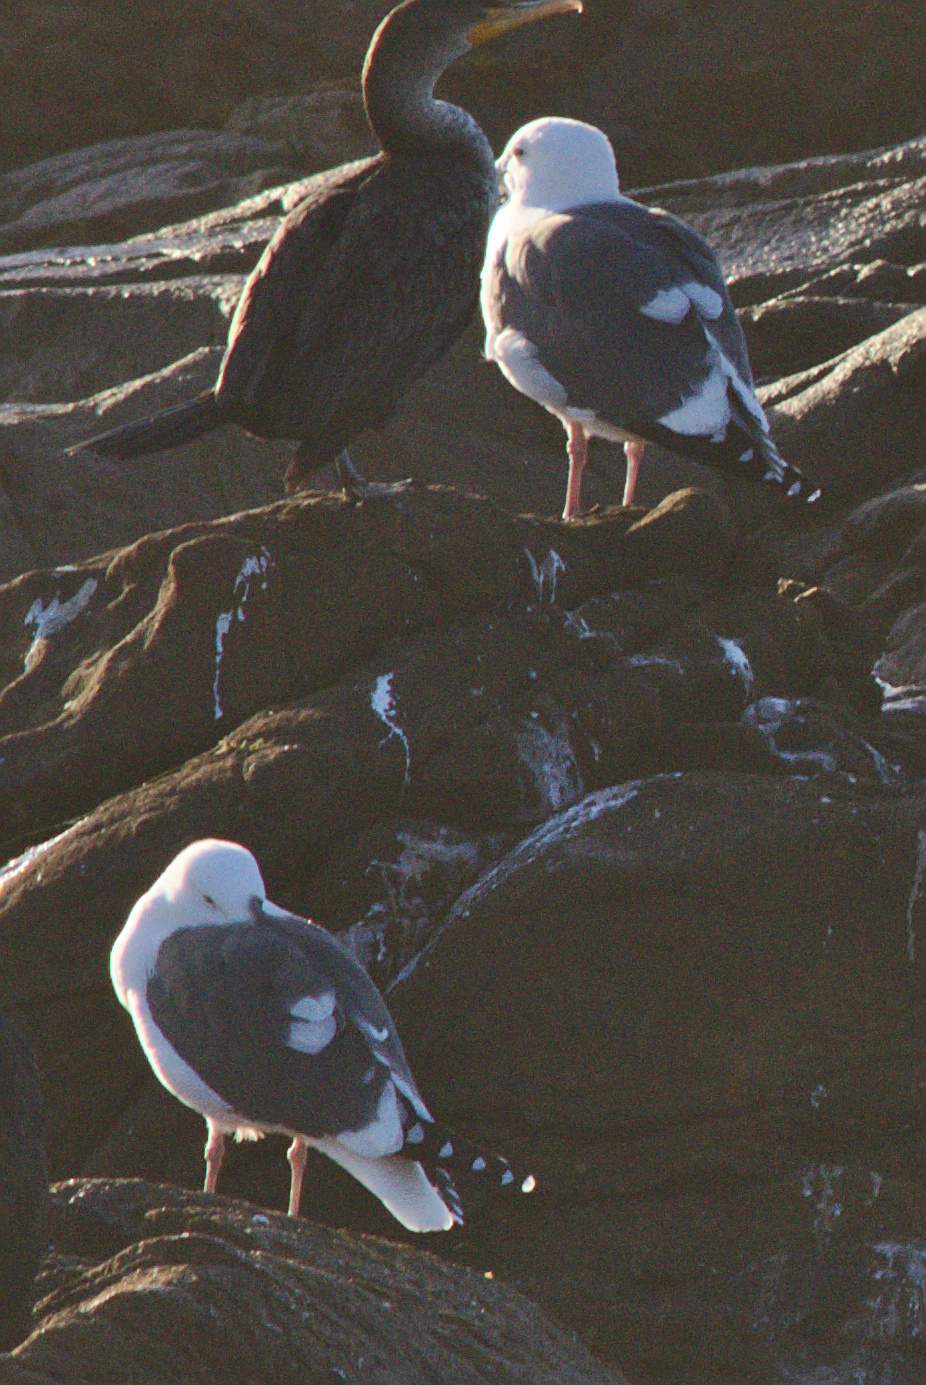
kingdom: Animalia
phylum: Chordata
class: Aves
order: Charadriiformes
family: Laridae
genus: Larus
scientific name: Larus occidentalis
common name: Western gull
